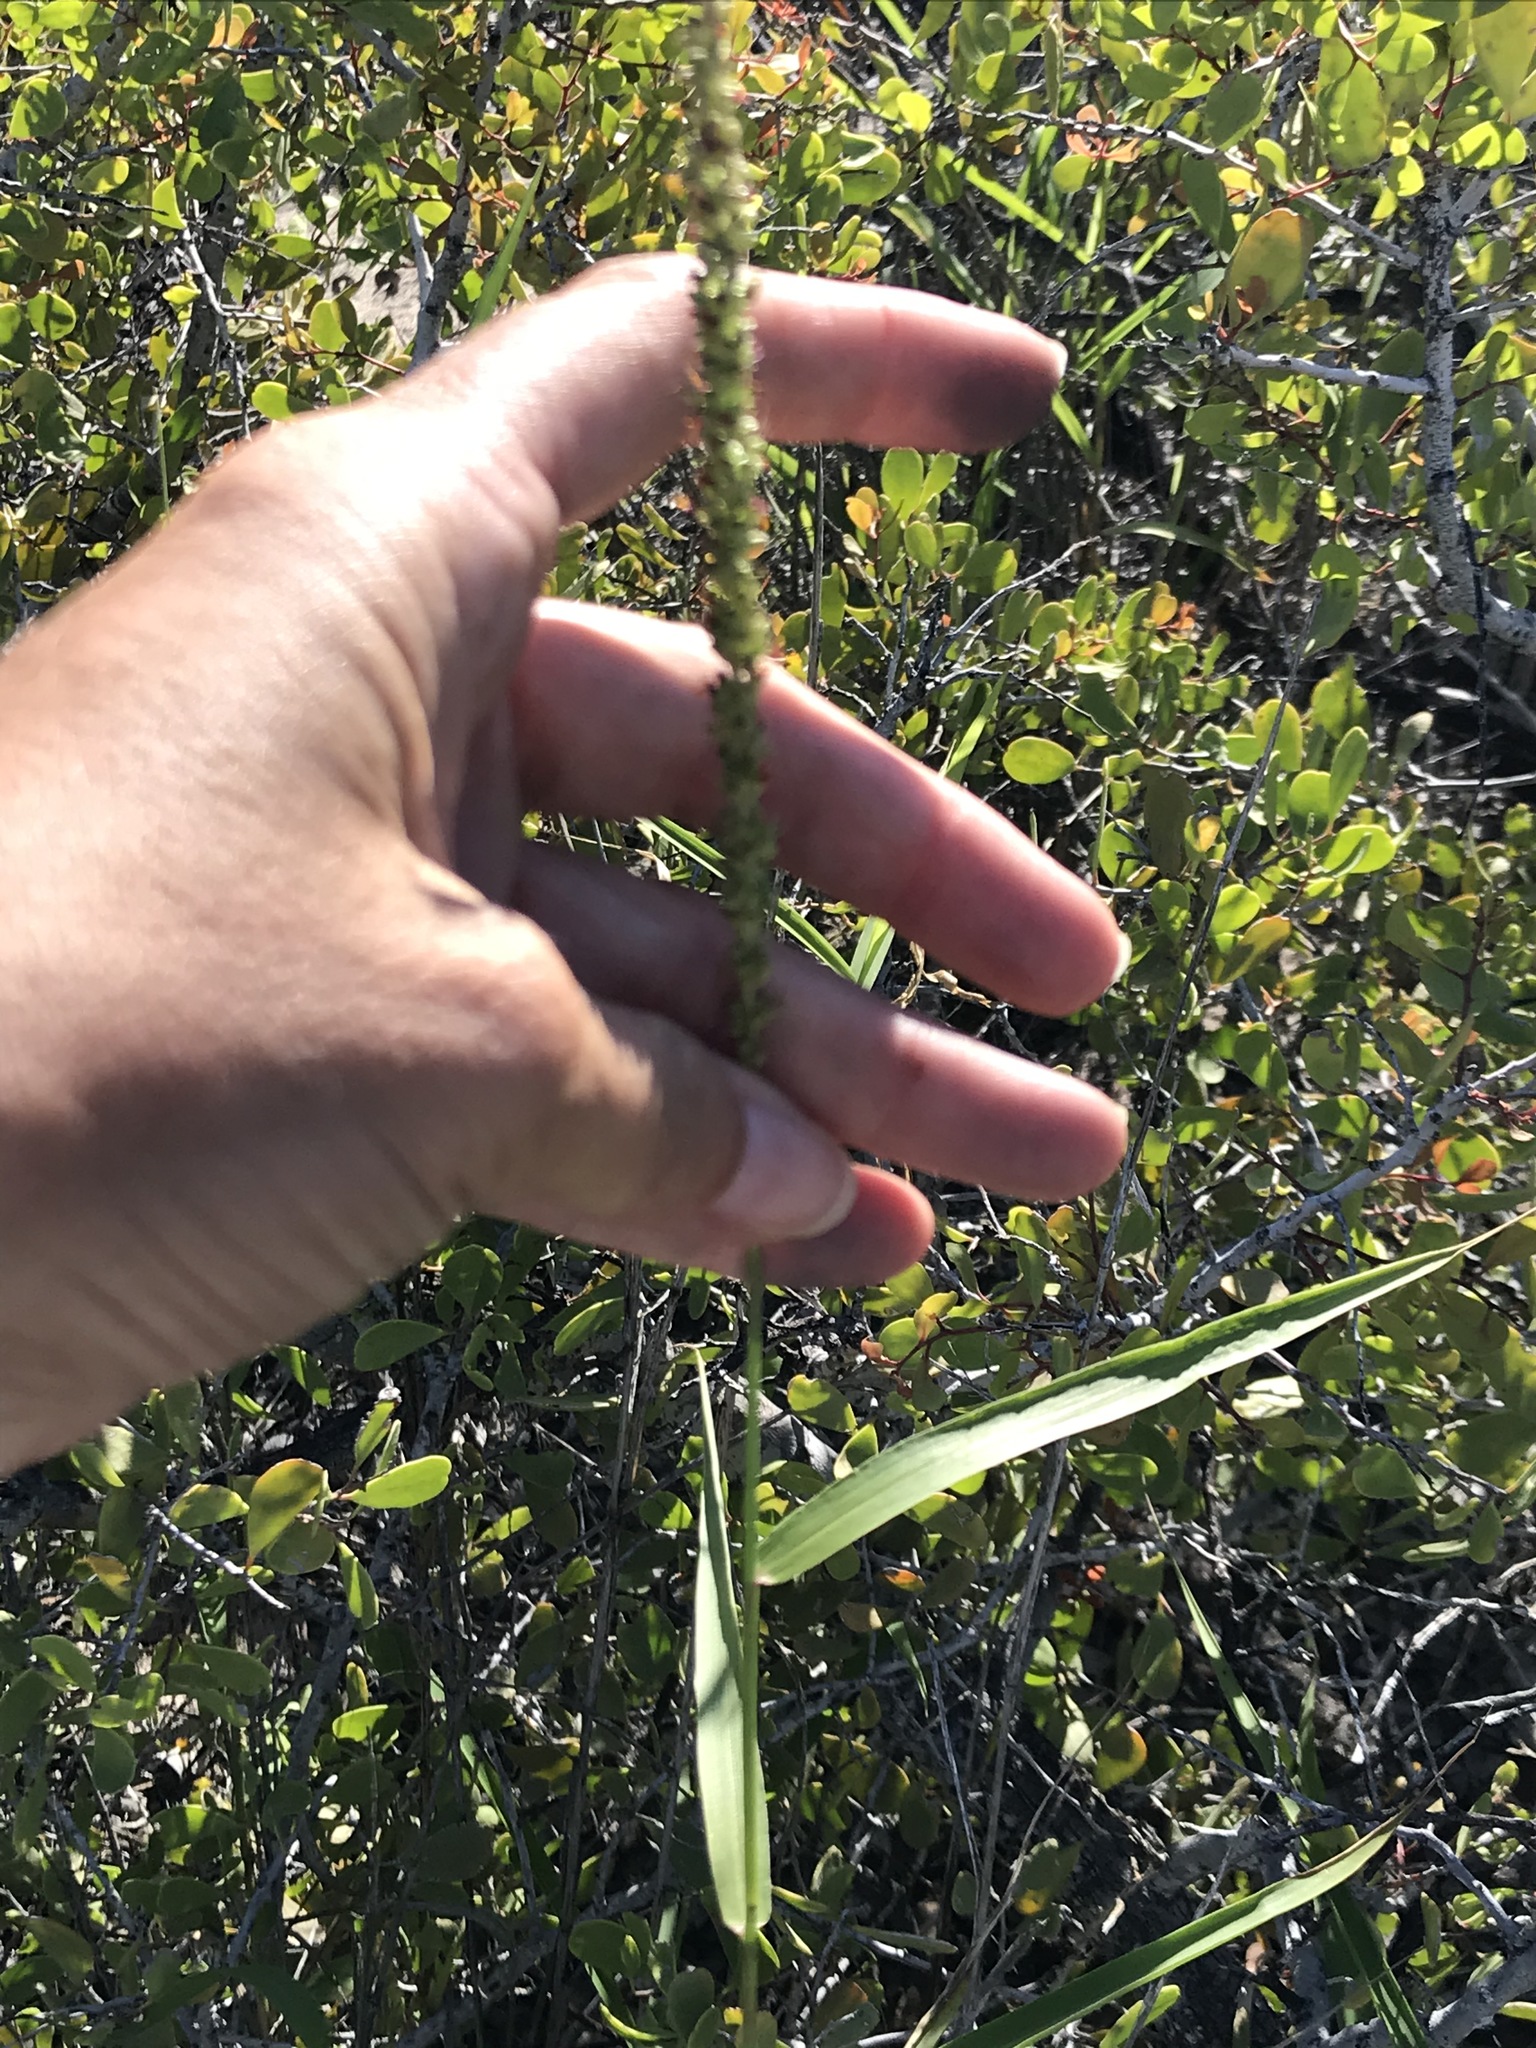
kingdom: Plantae
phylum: Tracheophyta
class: Liliopsida
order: Poales
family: Poaceae
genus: Setaria
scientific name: Setaria palmeri
